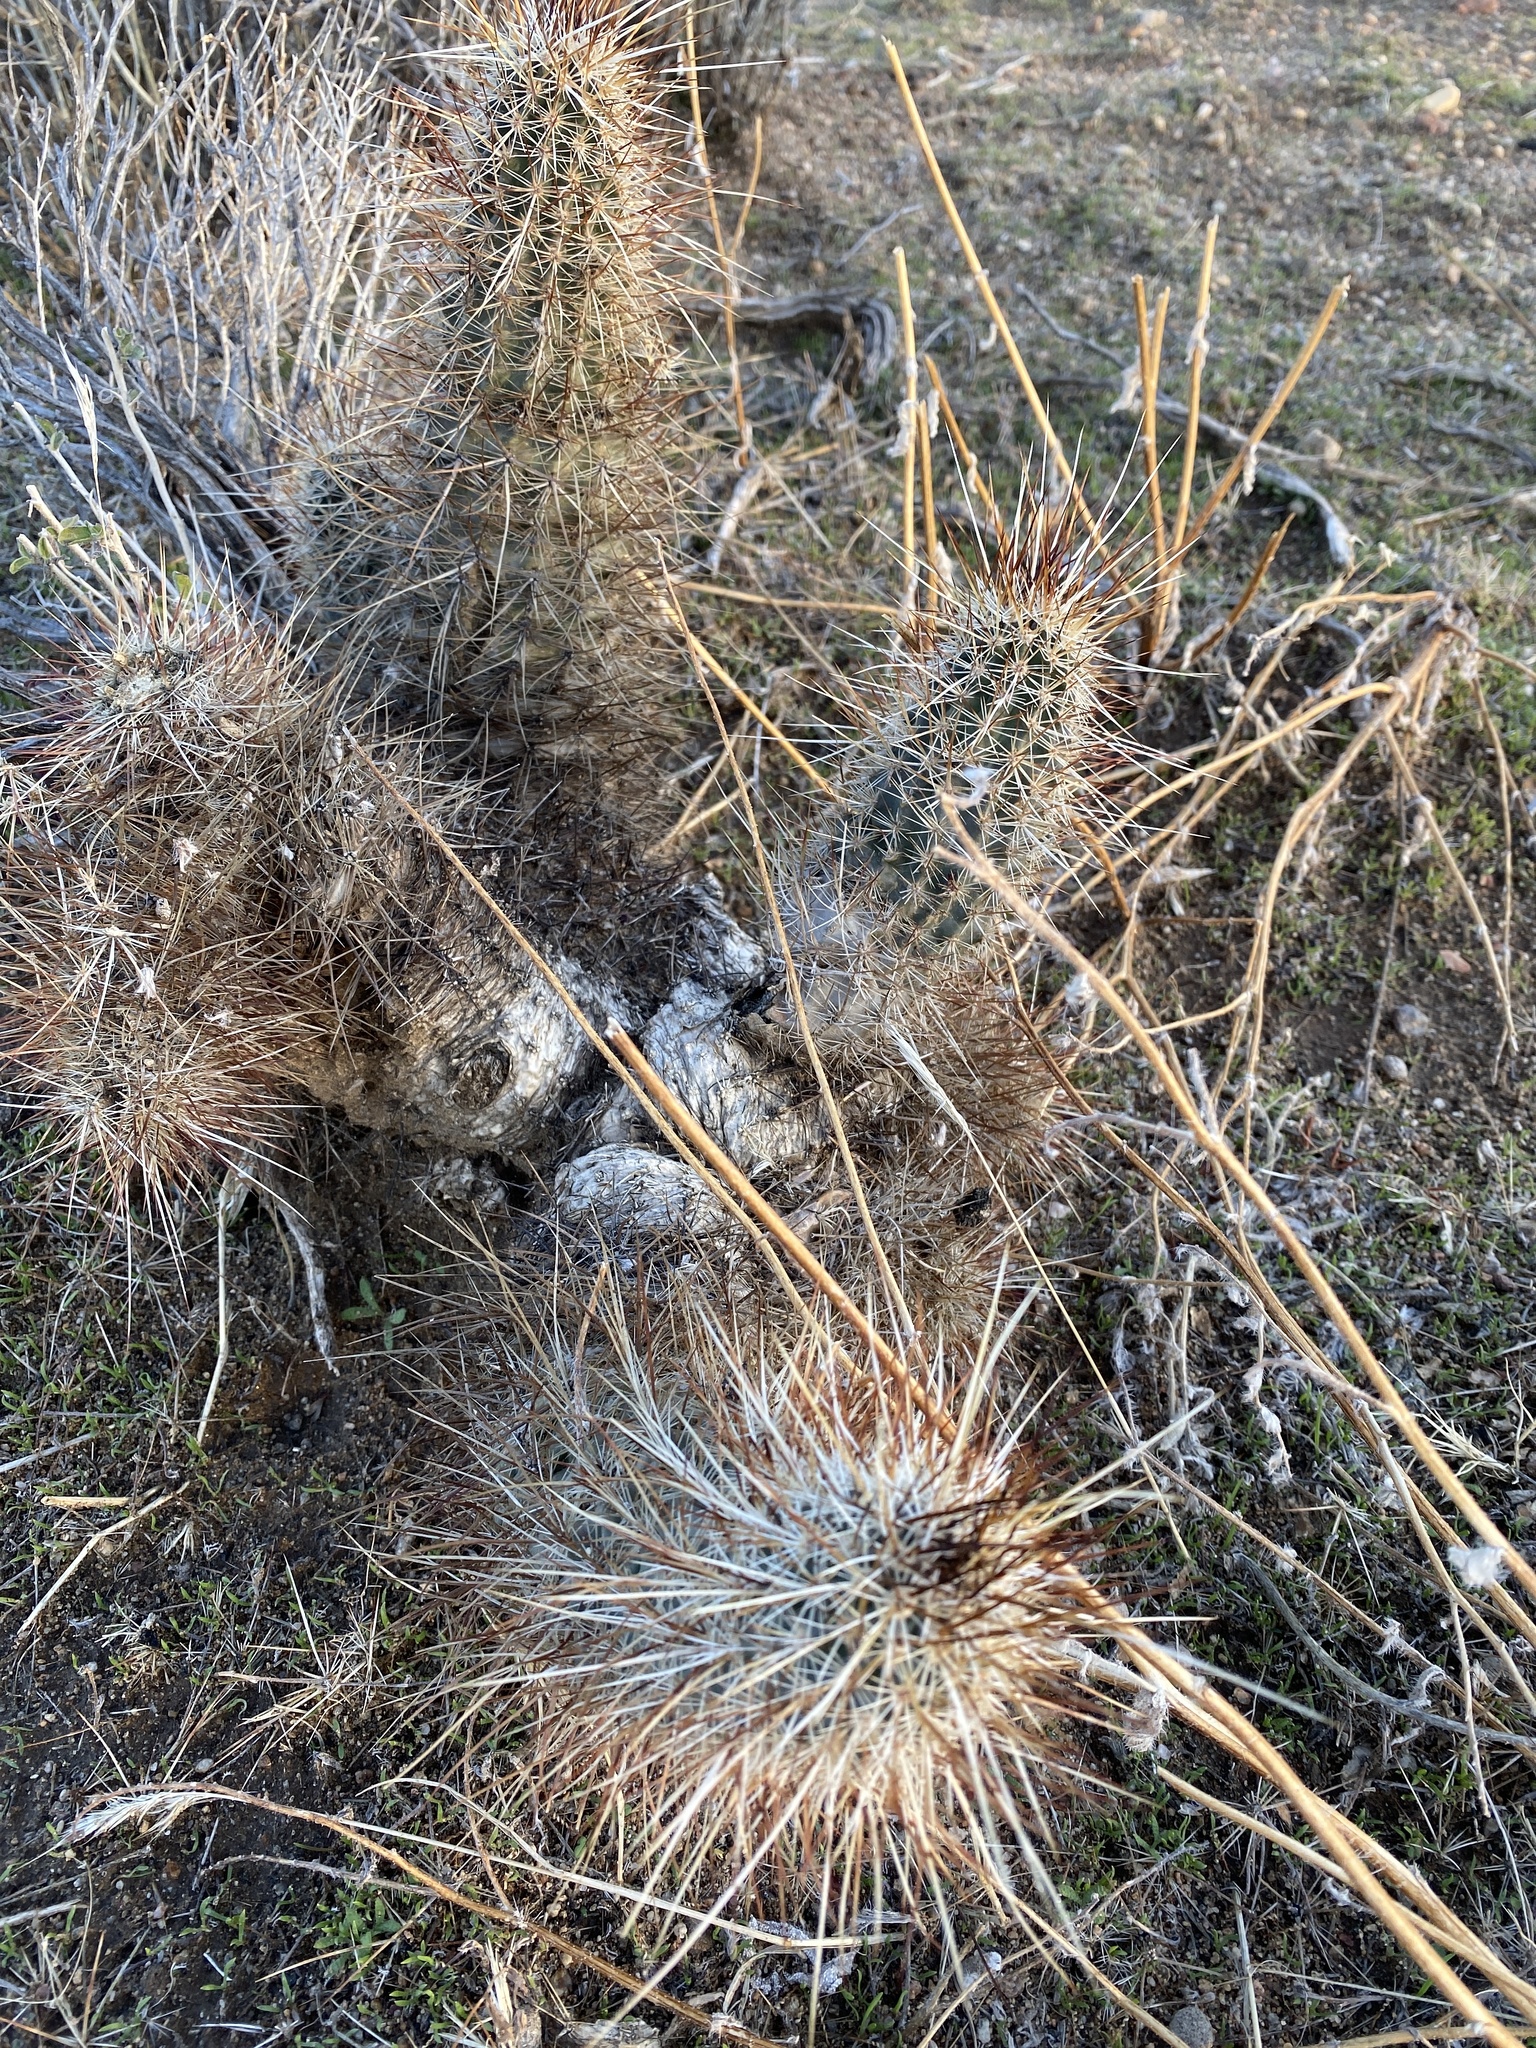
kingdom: Plantae
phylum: Tracheophyta
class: Magnoliopsida
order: Caryophyllales
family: Cactaceae
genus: Echinocereus
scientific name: Echinocereus engelmannii
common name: Engelmann's hedgehog cactus
